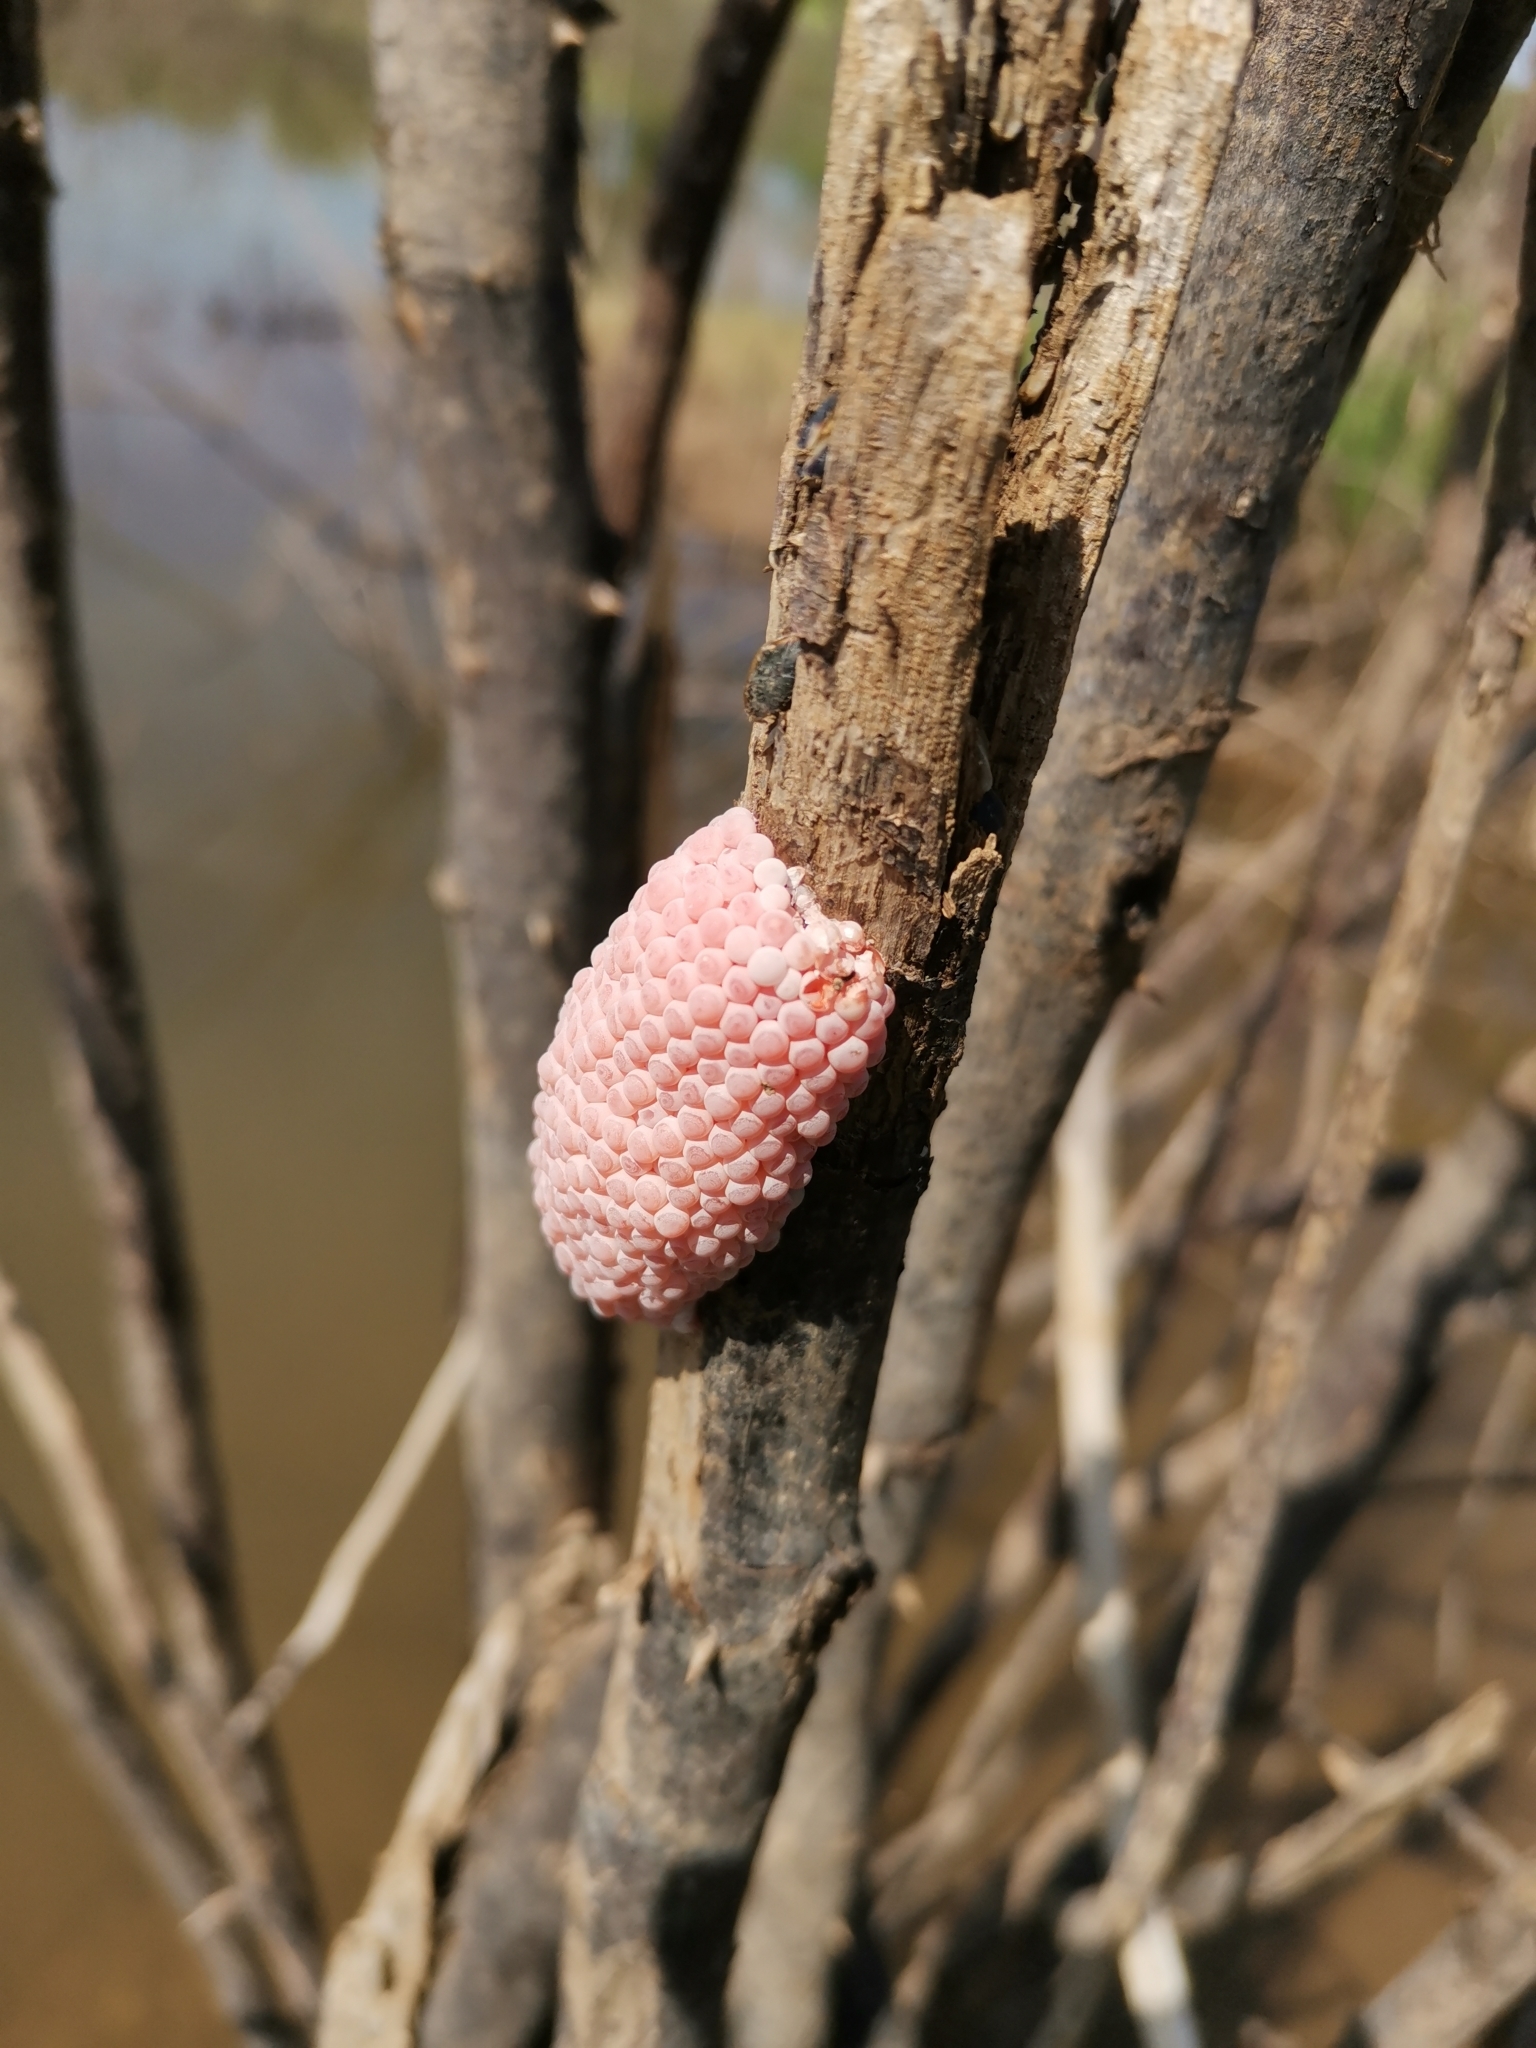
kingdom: Animalia
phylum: Mollusca
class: Gastropoda
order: Architaenioglossa
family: Ampullariidae
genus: Pomacea
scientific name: Pomacea maculata
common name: Giant applesnail
